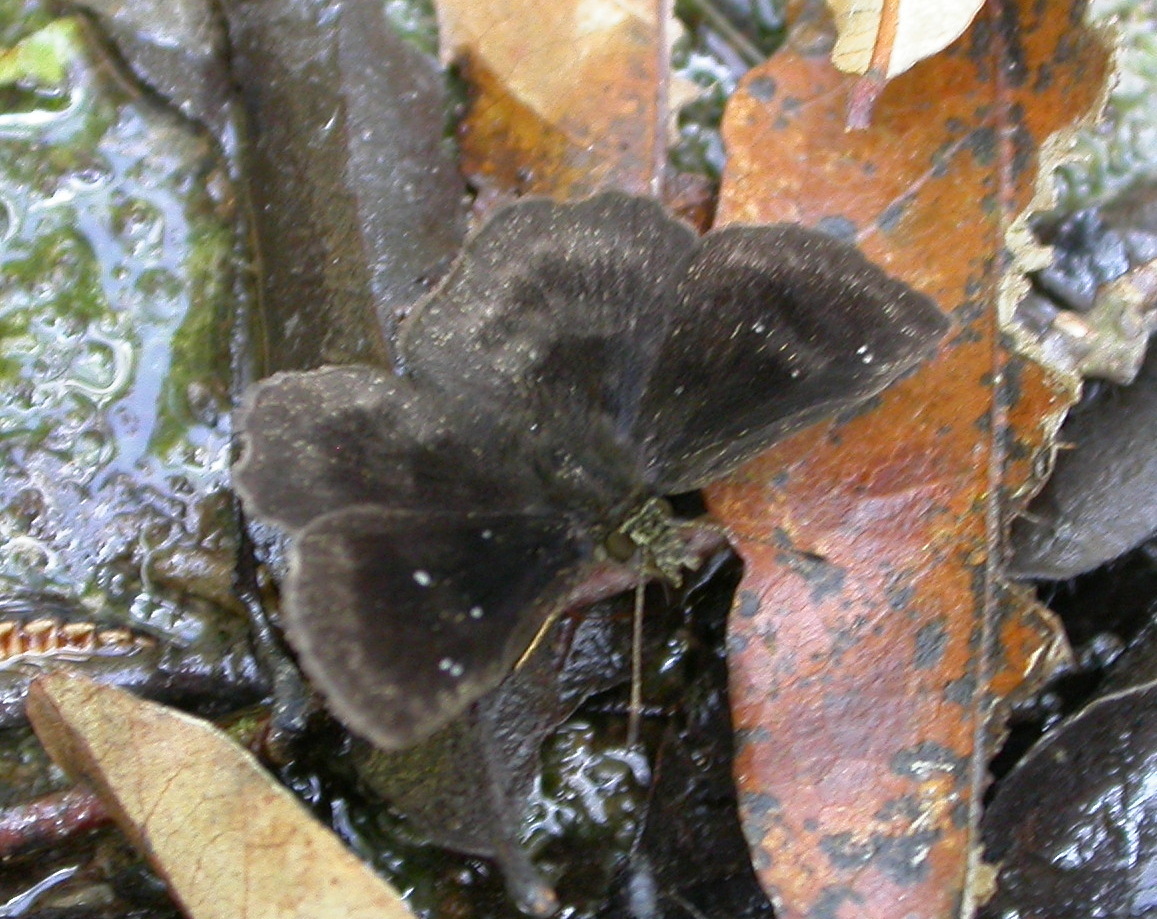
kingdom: Animalia
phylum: Arthropoda
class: Insecta
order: Lepidoptera
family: Hesperiidae
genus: Staphylus
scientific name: Staphylus mazans
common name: Mazans scallopwing
